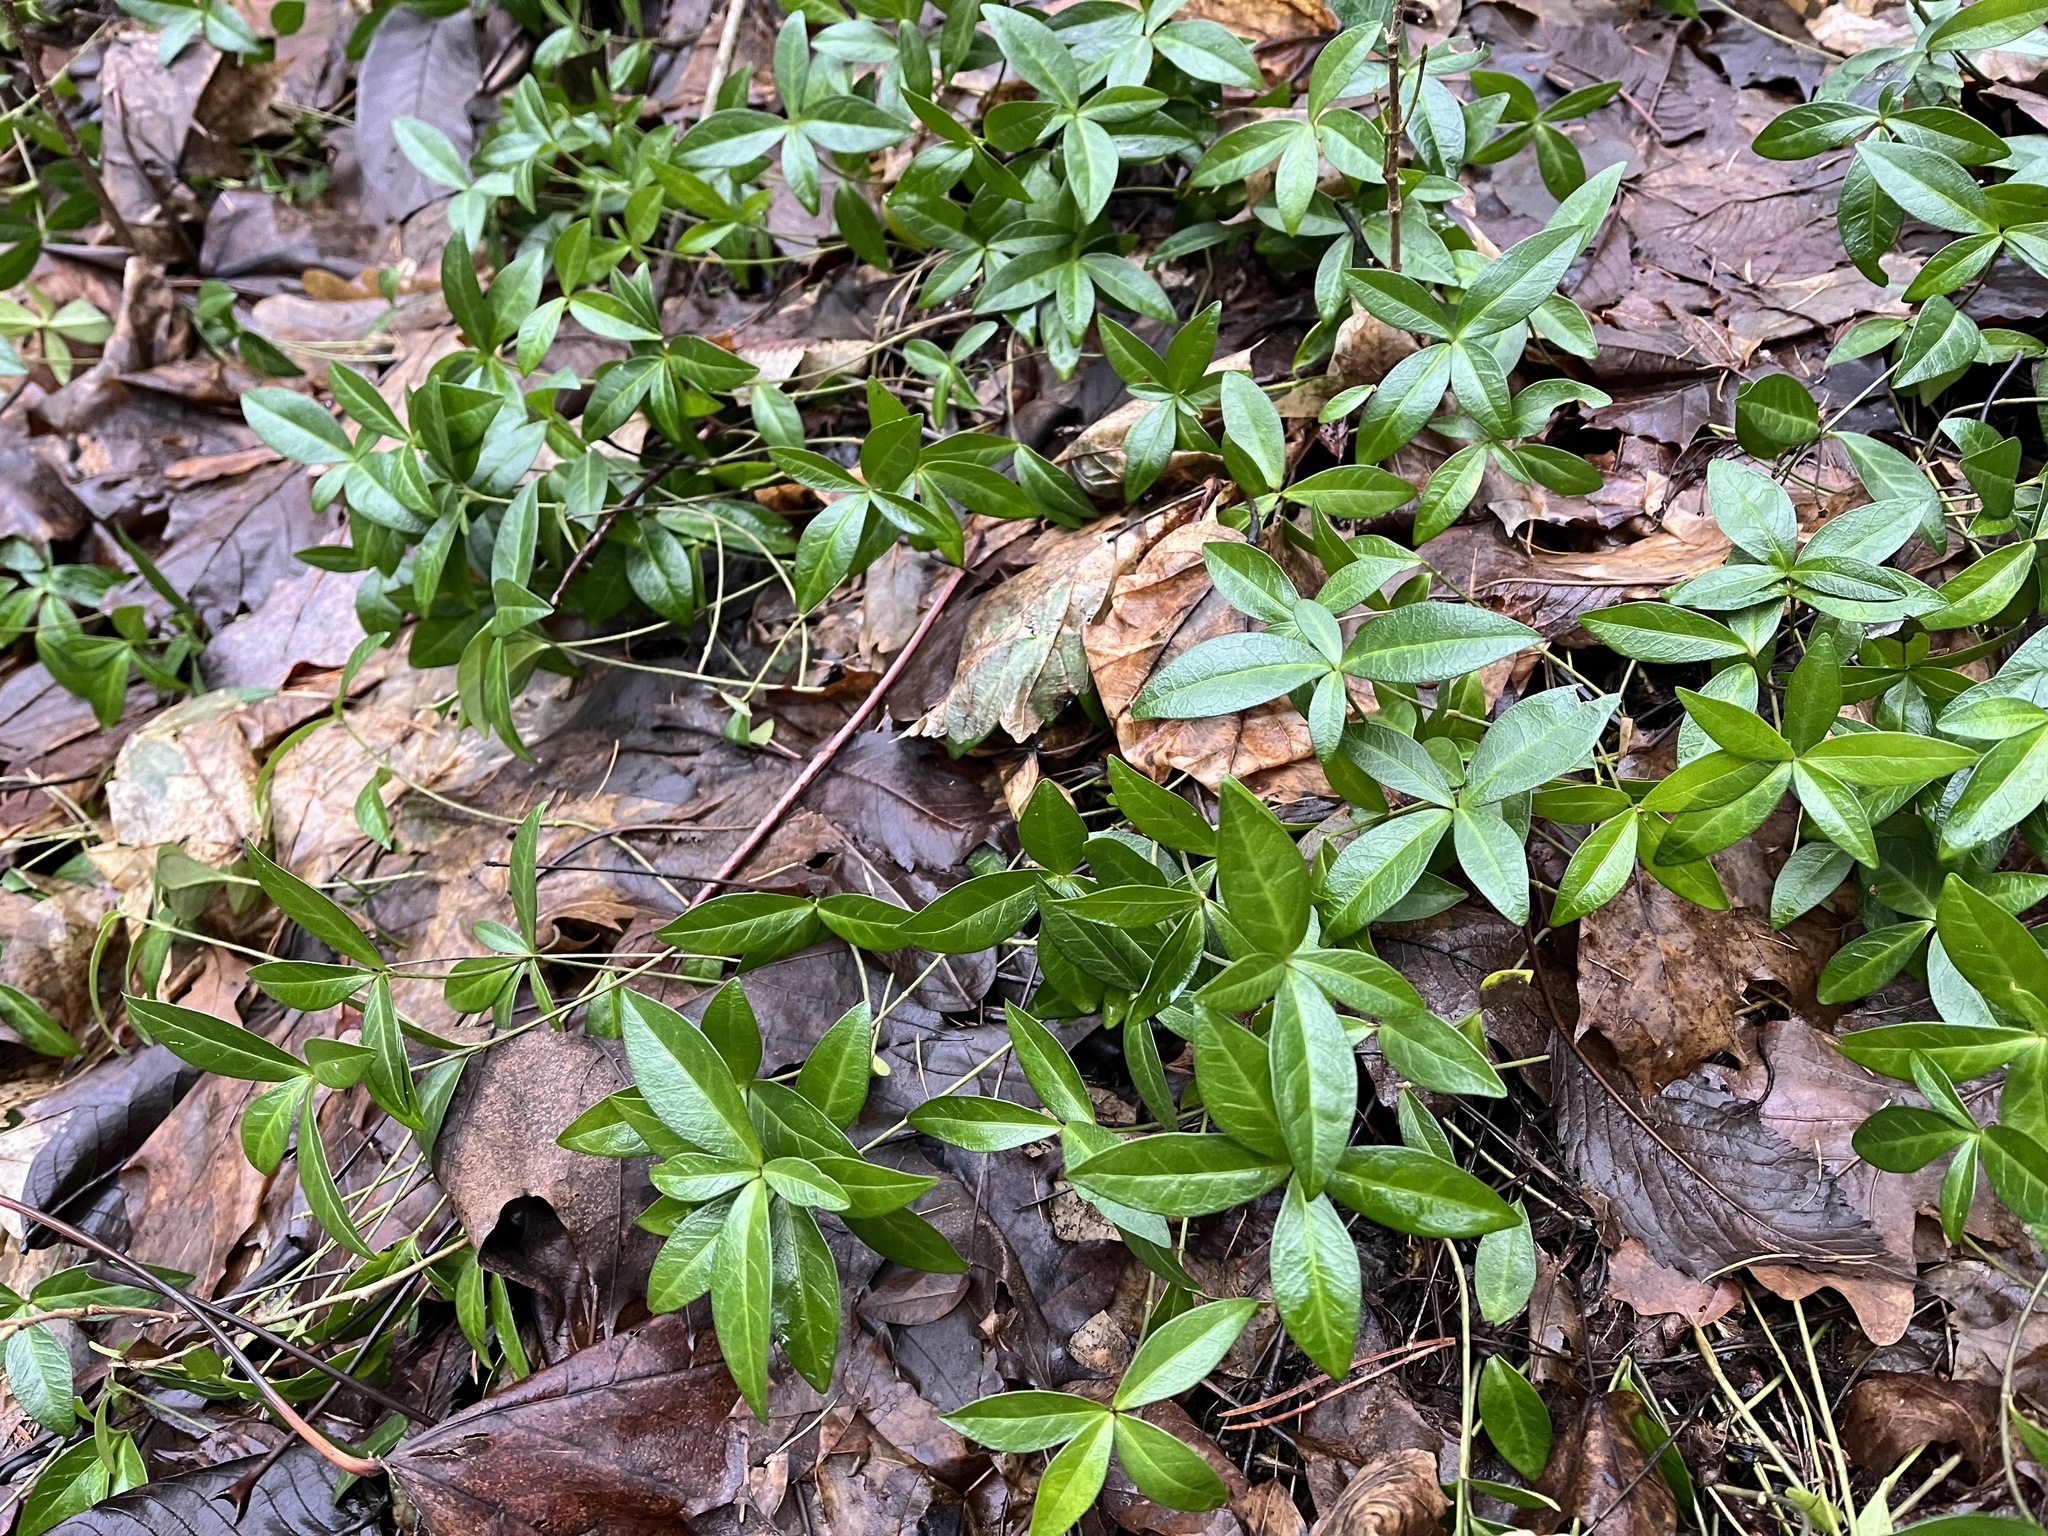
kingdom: Plantae
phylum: Tracheophyta
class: Magnoliopsida
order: Gentianales
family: Apocynaceae
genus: Vinca
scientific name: Vinca minor
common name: Lesser periwinkle
